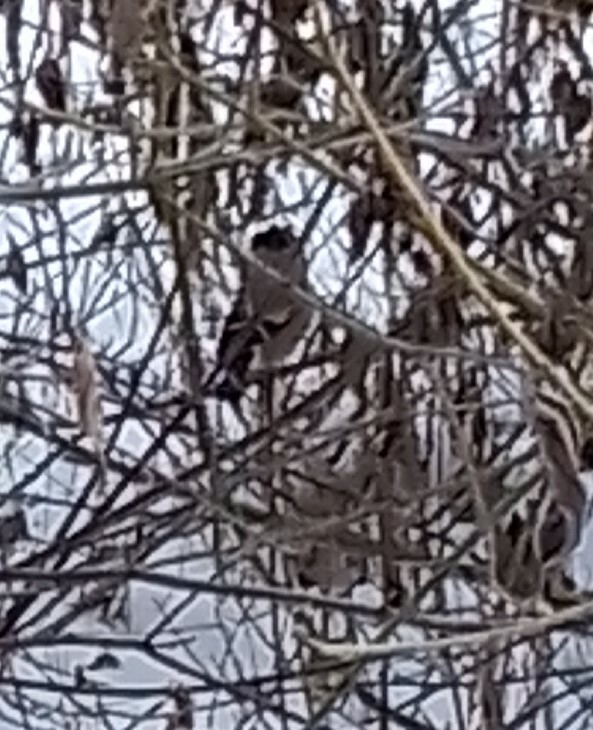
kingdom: Animalia
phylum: Chordata
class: Aves
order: Passeriformes
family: Fringillidae
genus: Pyrrhula
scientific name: Pyrrhula pyrrhula
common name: Eurasian bullfinch
